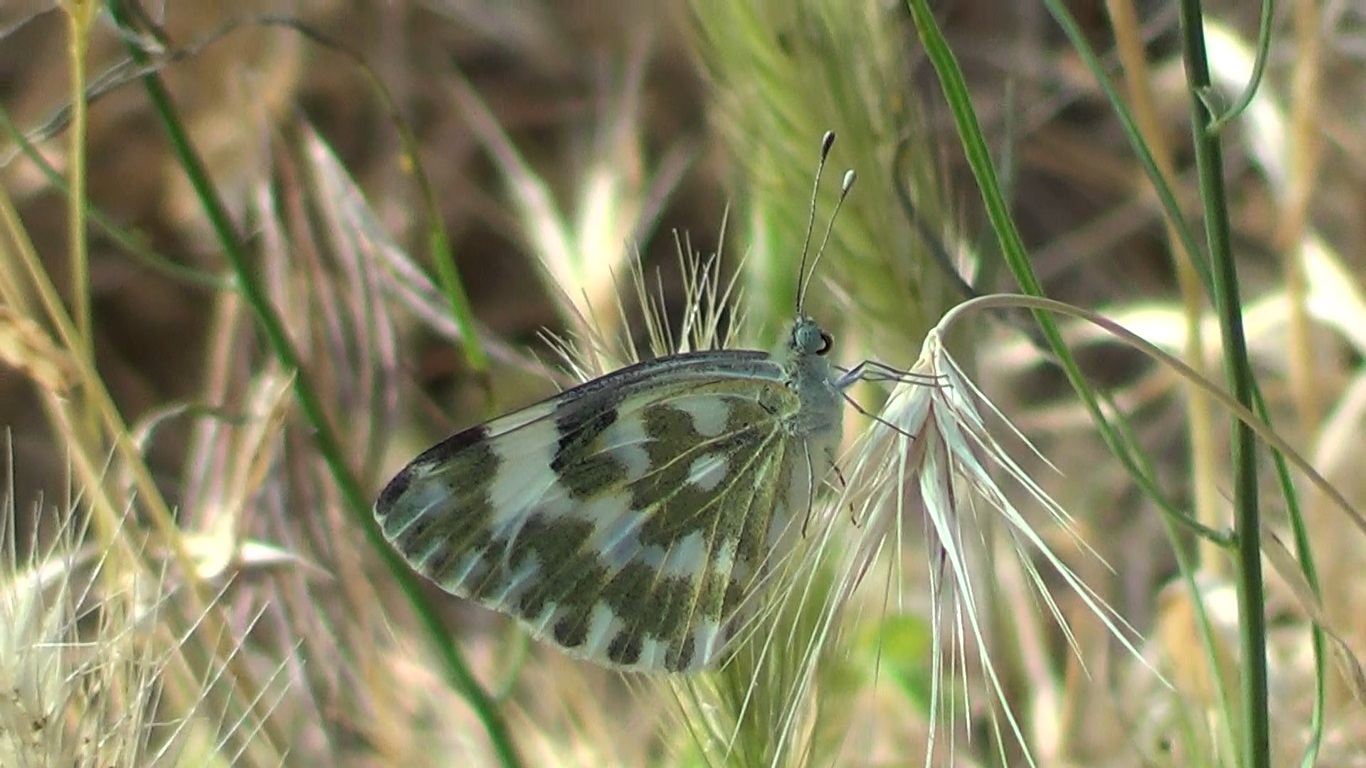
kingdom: Animalia
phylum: Arthropoda
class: Insecta
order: Lepidoptera
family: Pieridae
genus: Pontia
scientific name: Pontia edusa
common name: Eastern bath white
